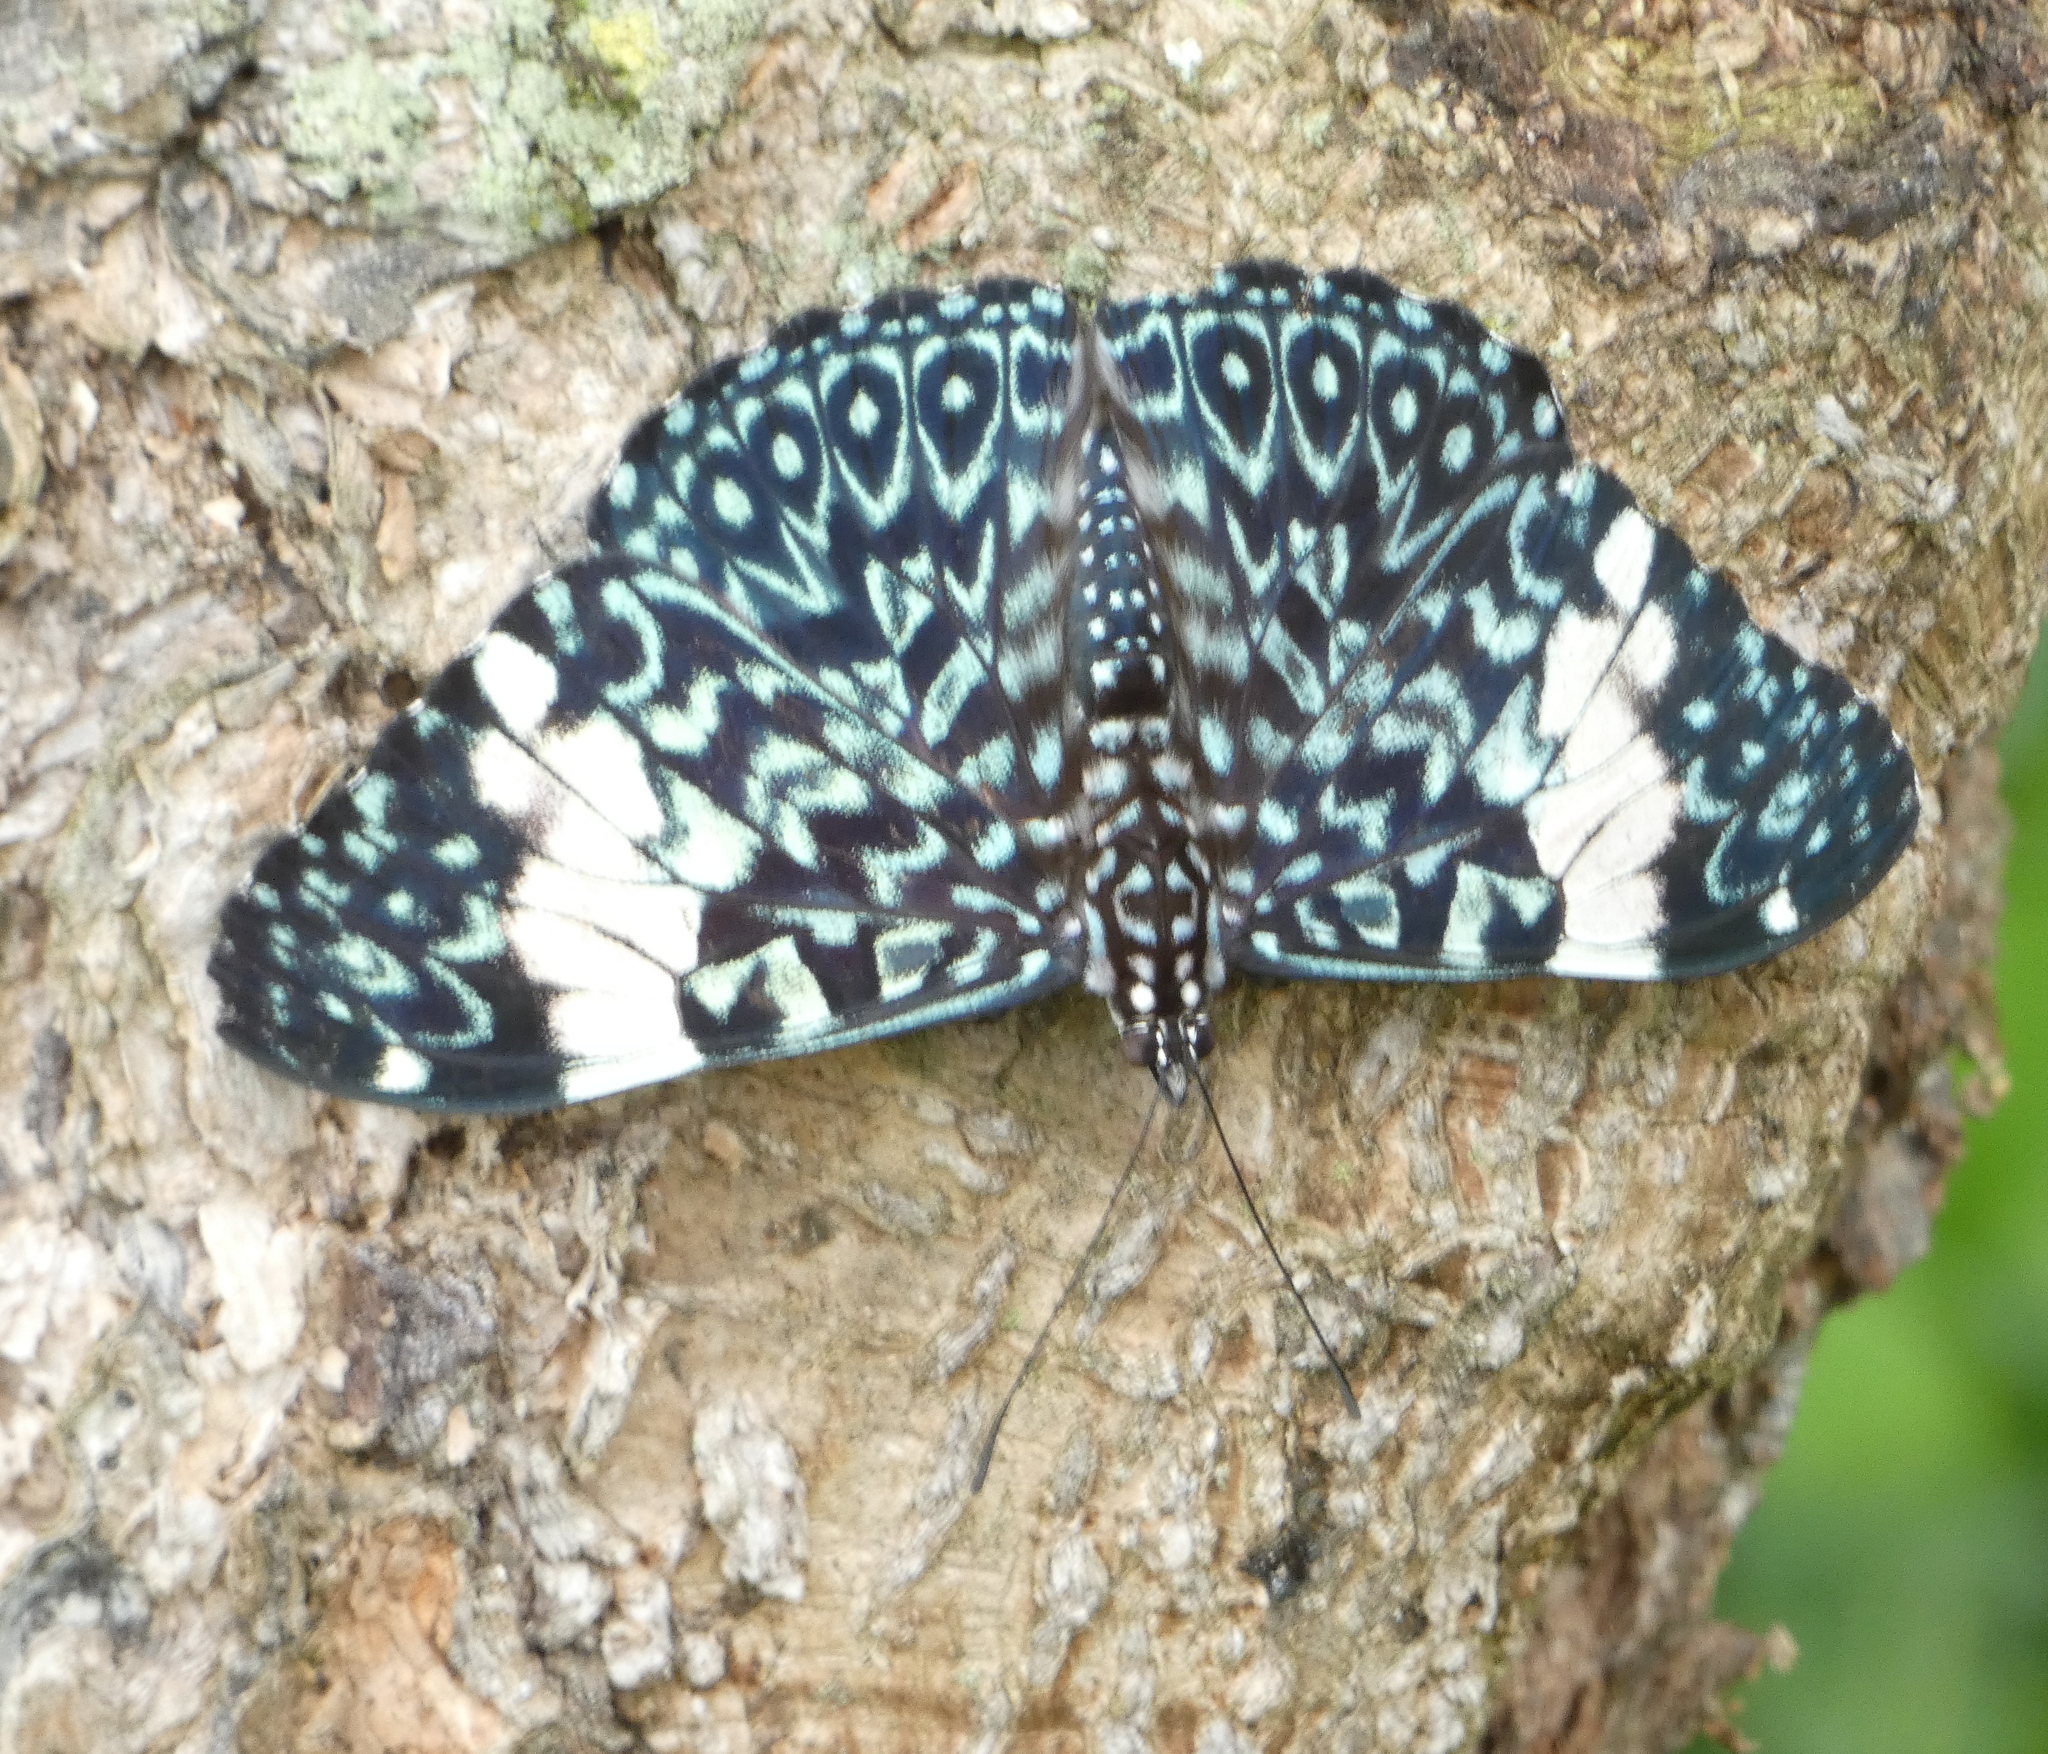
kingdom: Animalia
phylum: Arthropoda
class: Insecta
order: Lepidoptera
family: Nymphalidae
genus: Hamadryas
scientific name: Hamadryas amphinome
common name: Red cracker
